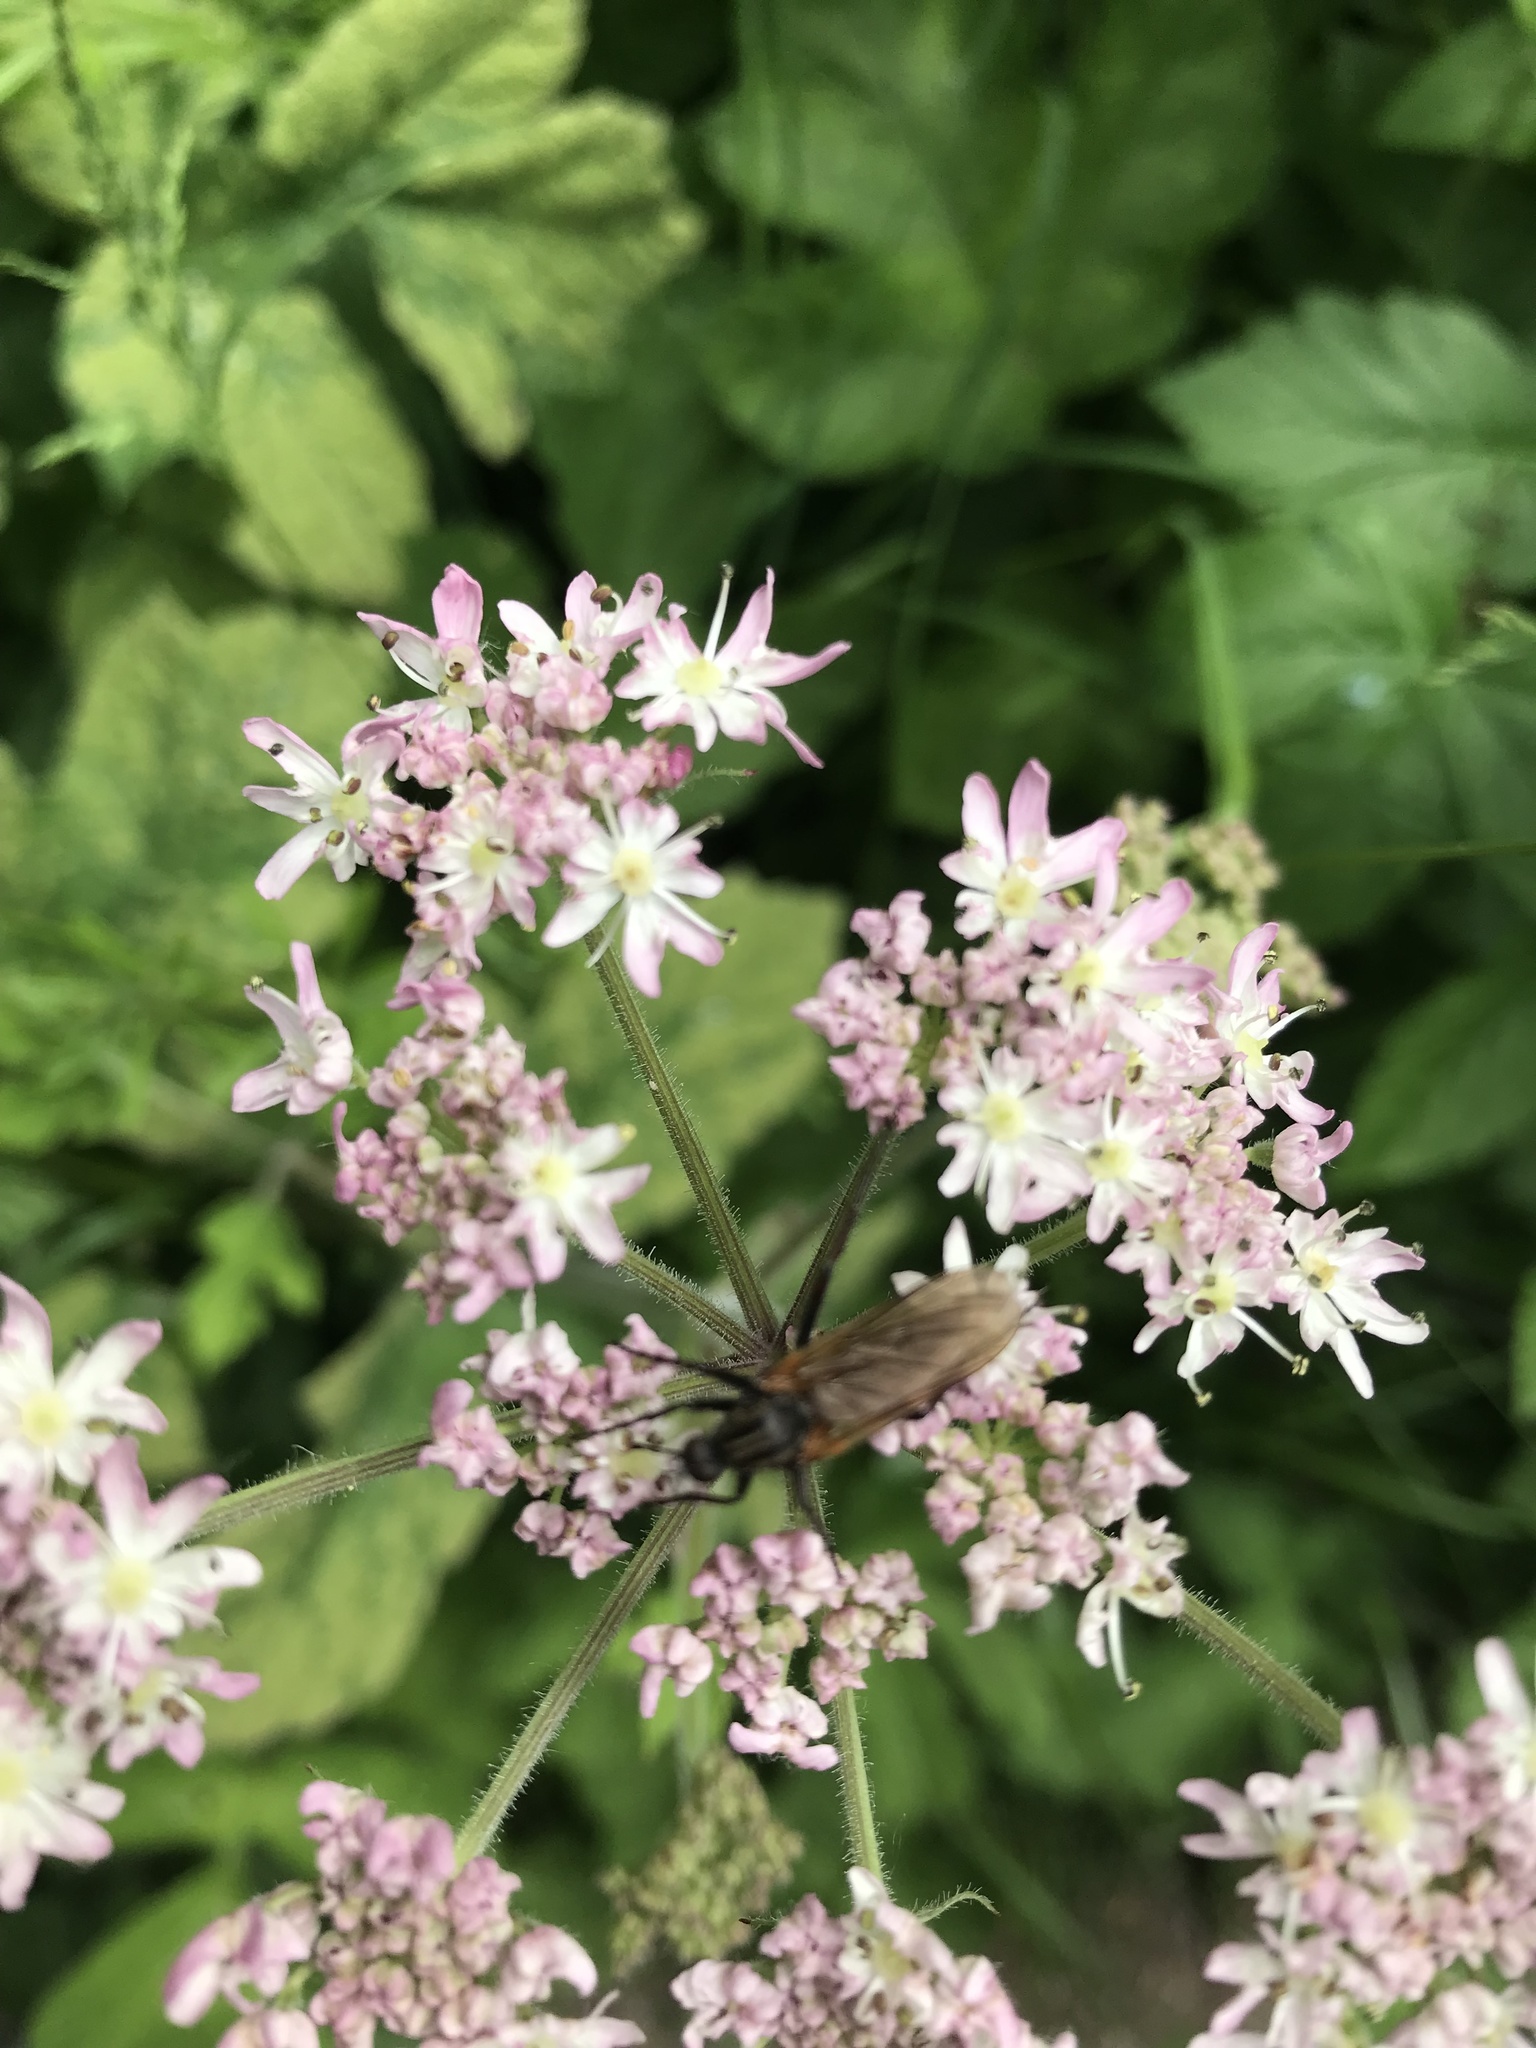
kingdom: Plantae
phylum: Tracheophyta
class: Magnoliopsida
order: Apiales
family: Apiaceae
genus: Heracleum
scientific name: Heracleum sphondylium
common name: Hogweed
